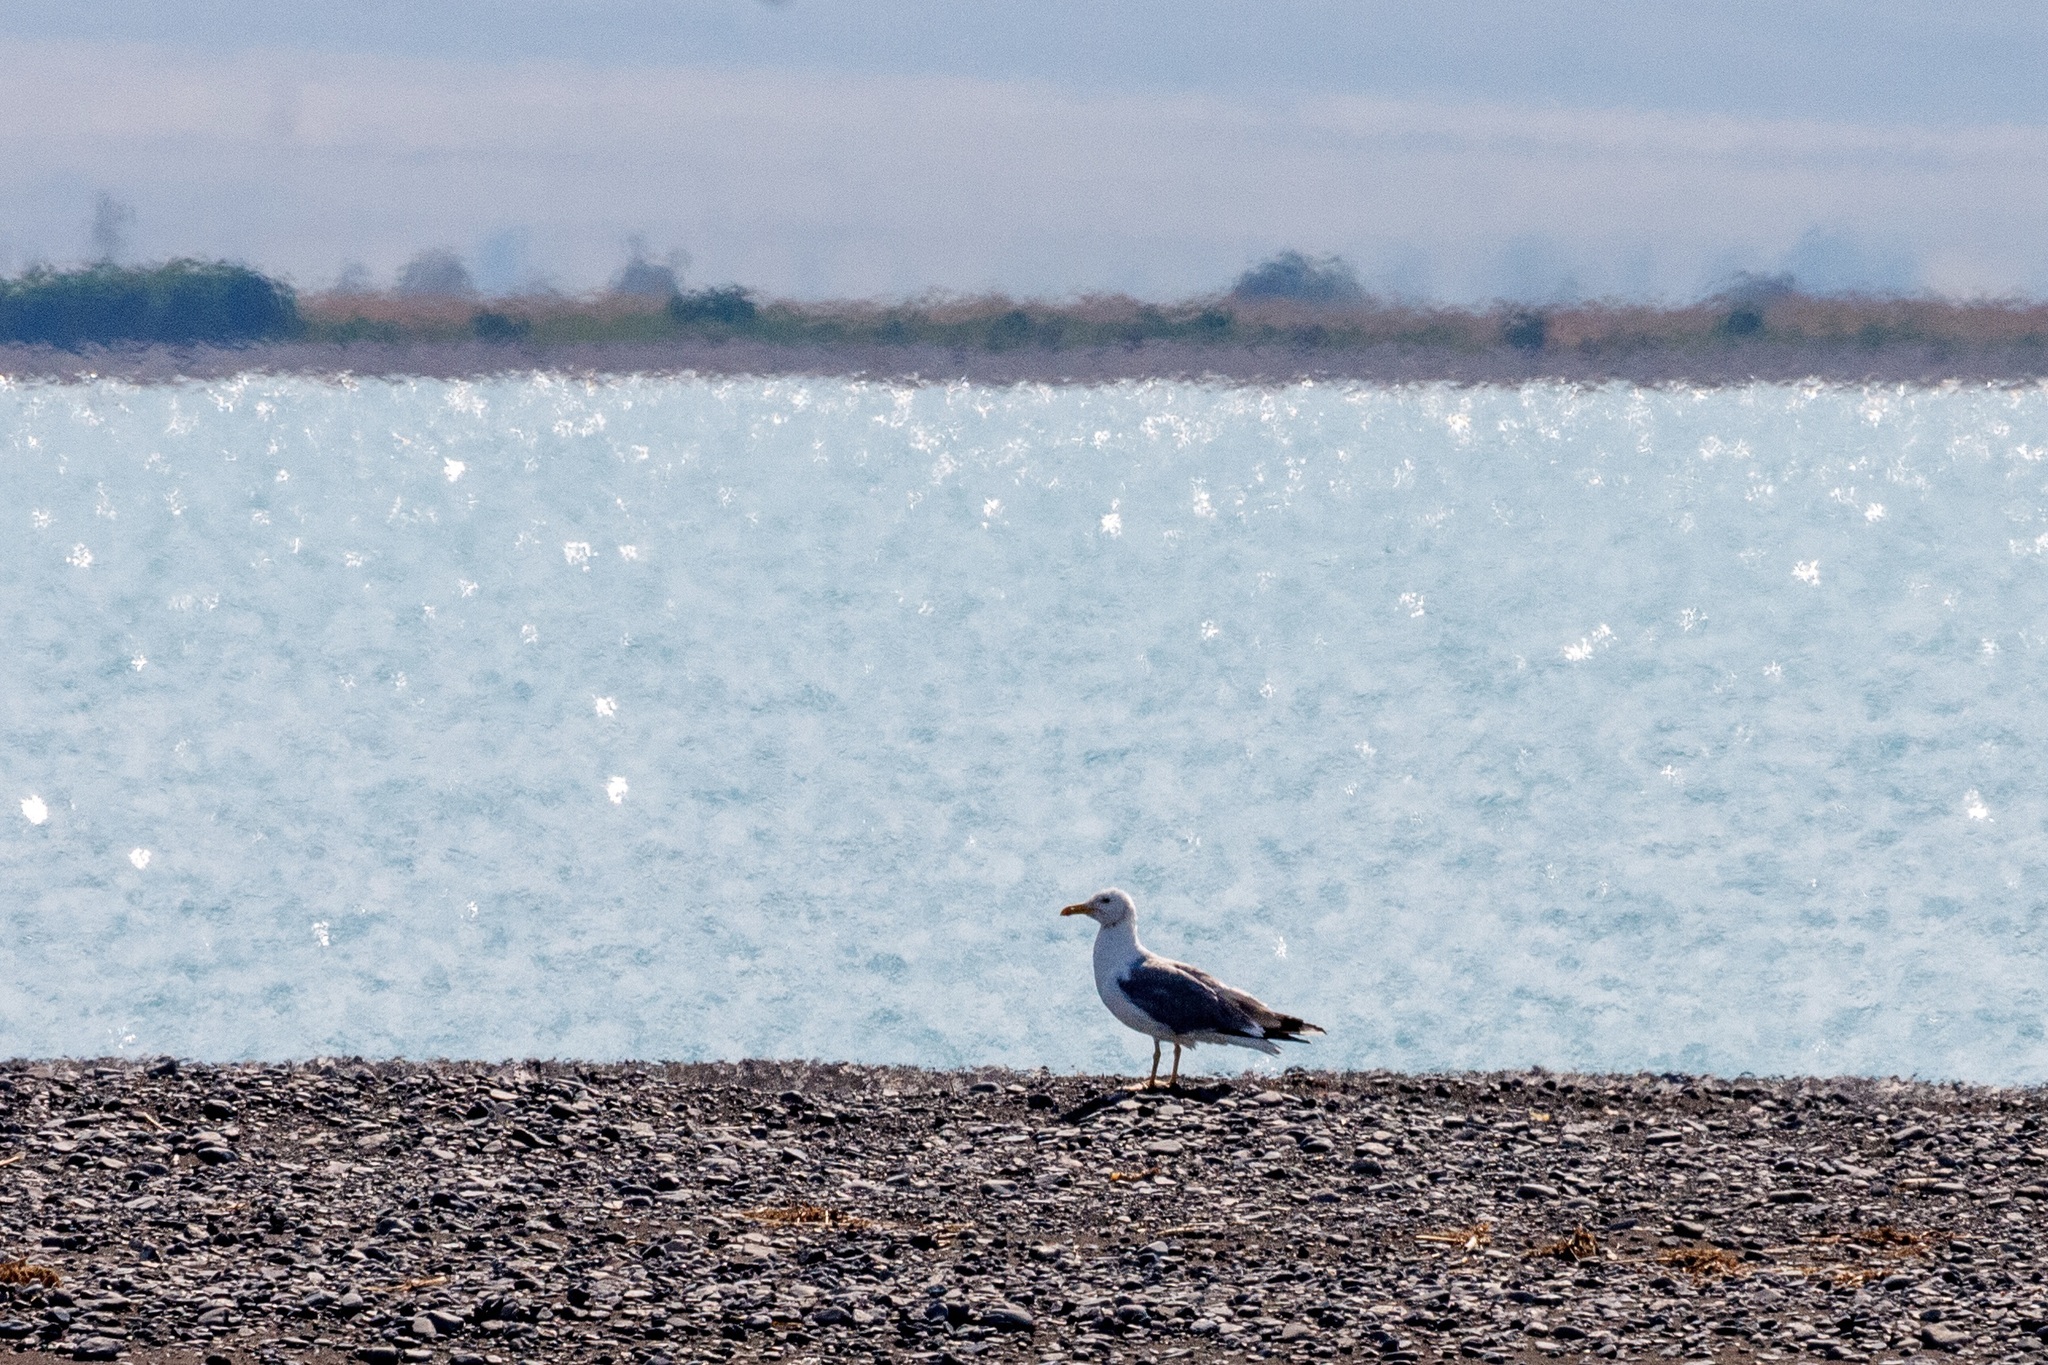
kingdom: Animalia
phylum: Chordata
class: Aves
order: Charadriiformes
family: Laridae
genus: Larus
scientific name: Larus cachinnans
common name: Caspian gull
